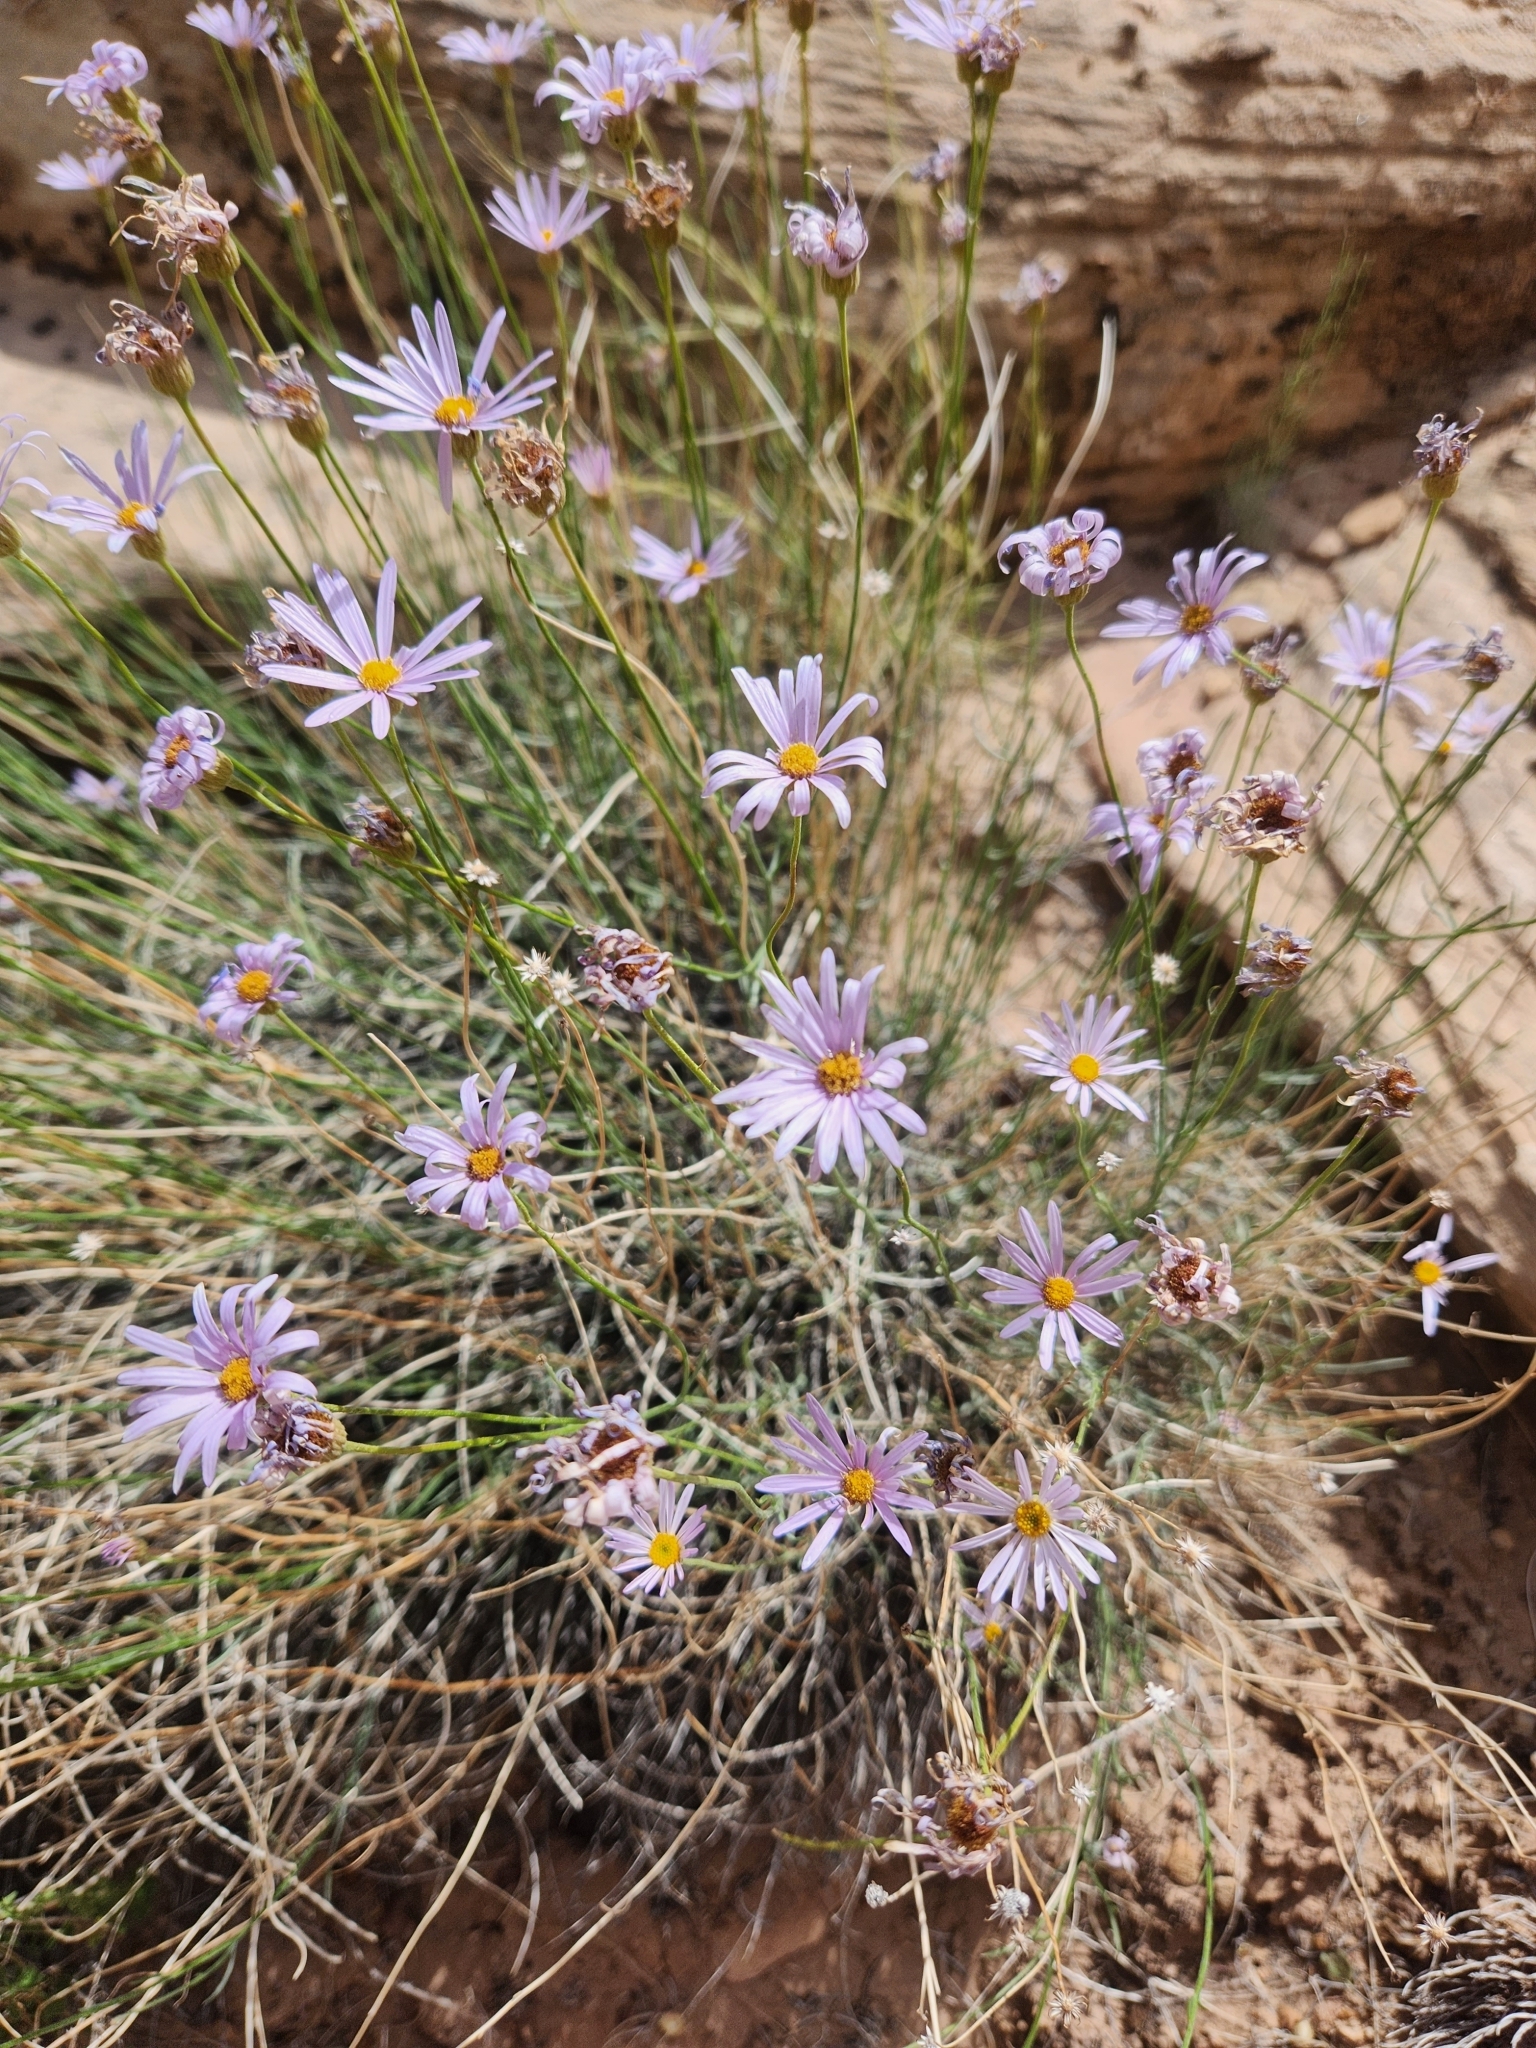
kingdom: Plantae
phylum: Tracheophyta
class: Magnoliopsida
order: Asterales
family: Asteraceae
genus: Erigeron
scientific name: Erigeron utahensis
